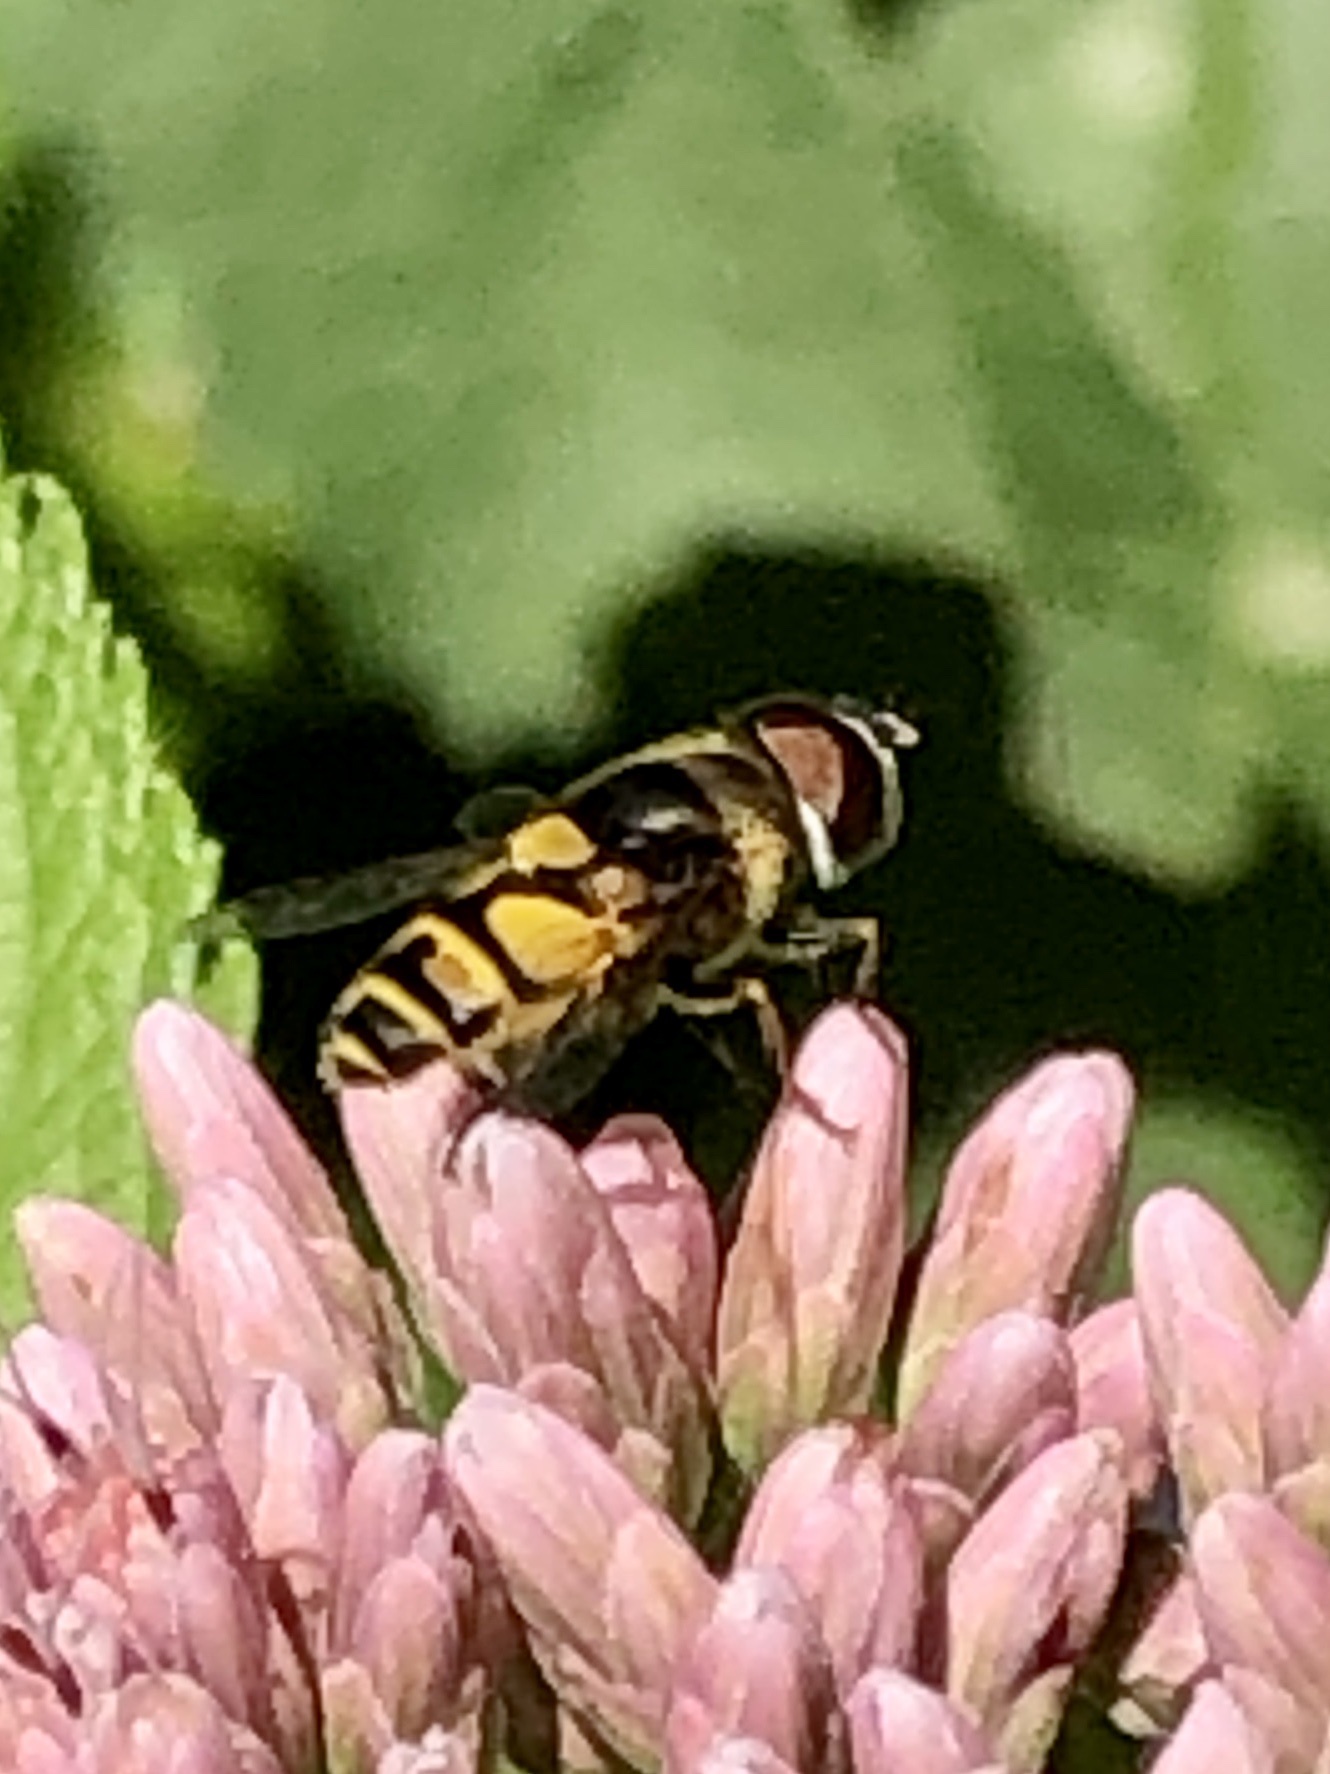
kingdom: Animalia
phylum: Arthropoda
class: Insecta
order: Diptera
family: Syrphidae
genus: Eristalis
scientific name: Eristalis transversa
